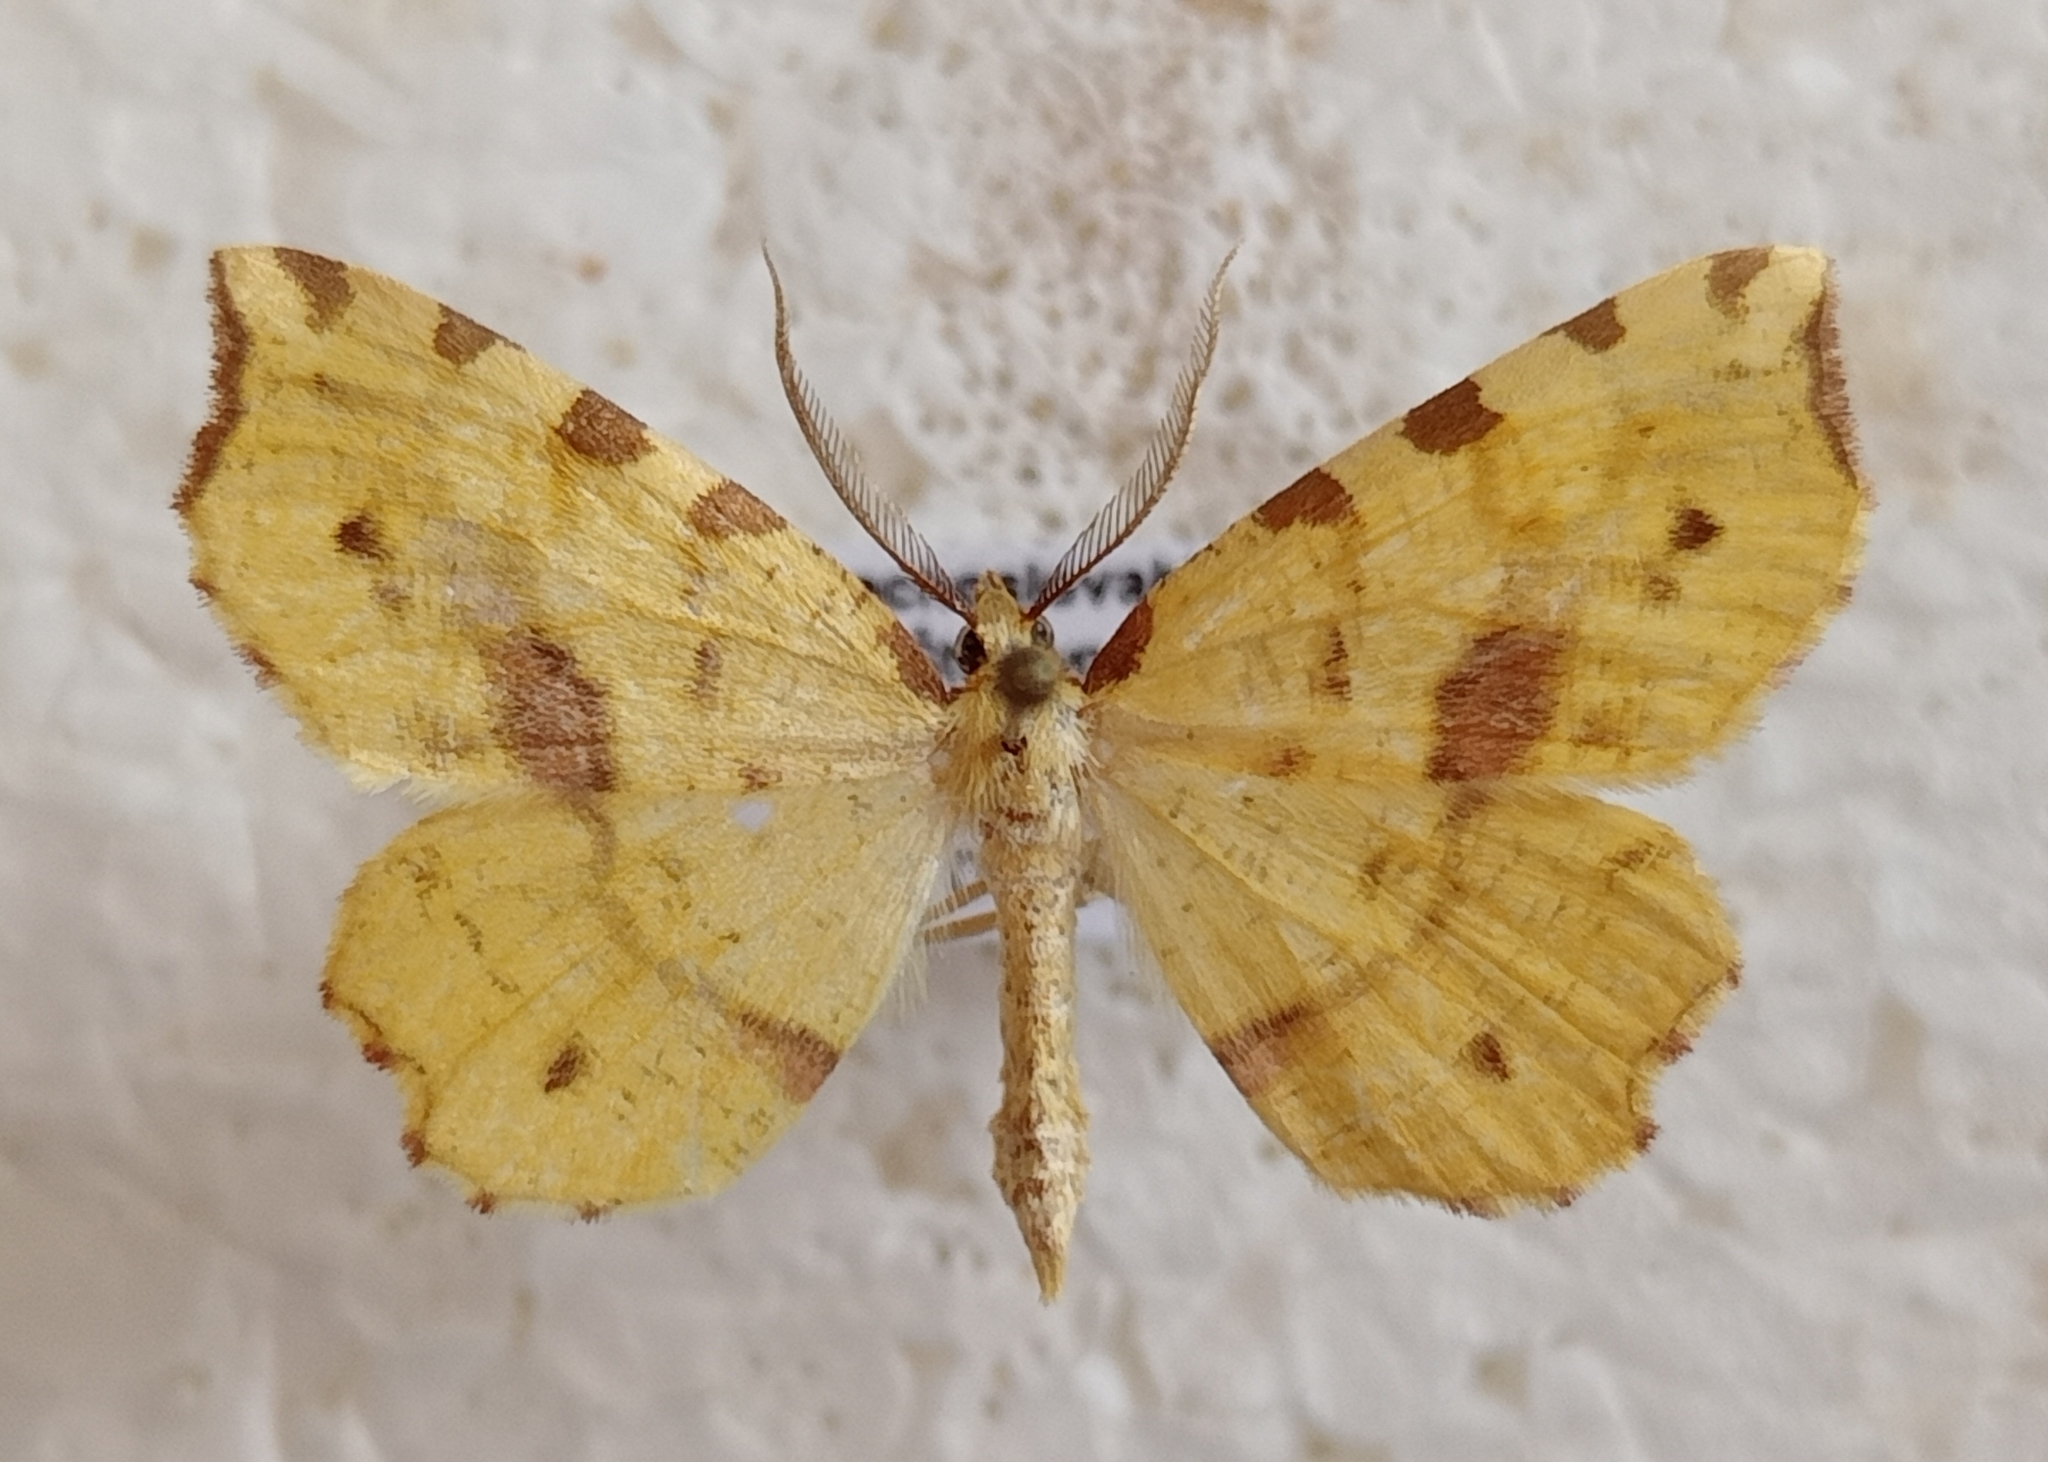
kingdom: Animalia
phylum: Arthropoda
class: Insecta
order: Lepidoptera
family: Geometridae
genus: Therapis
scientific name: Therapis flavicaria
